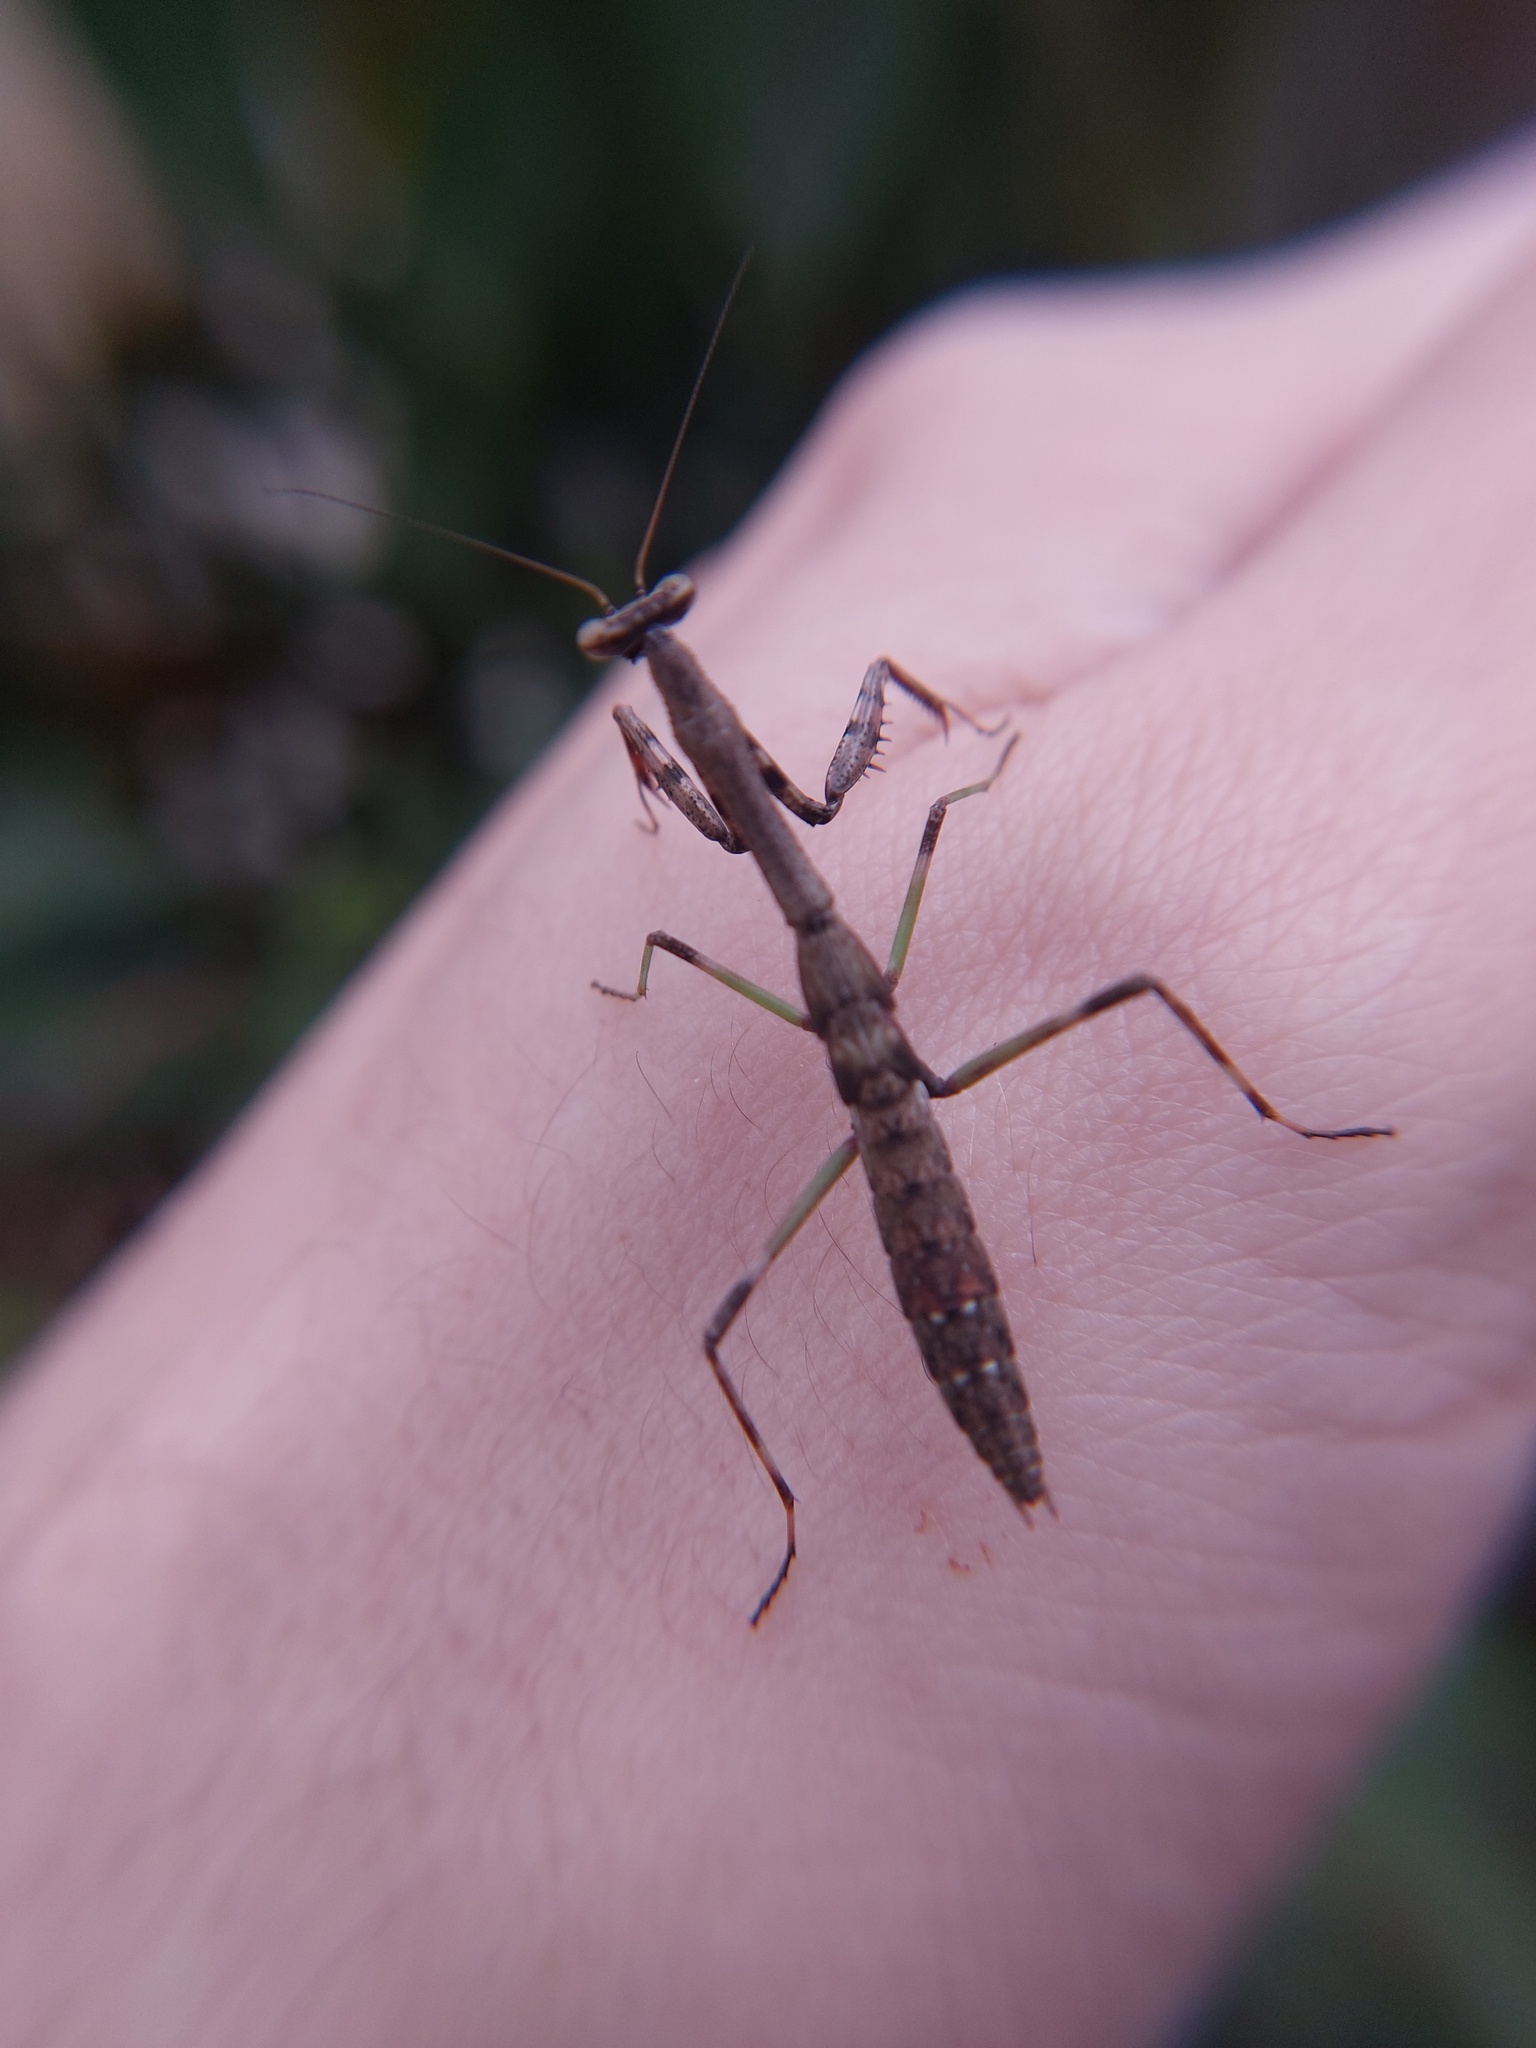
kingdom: Animalia
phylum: Arthropoda
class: Insecta
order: Mantodea
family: Mantidae
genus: Stagmomantis
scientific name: Stagmomantis carolina
